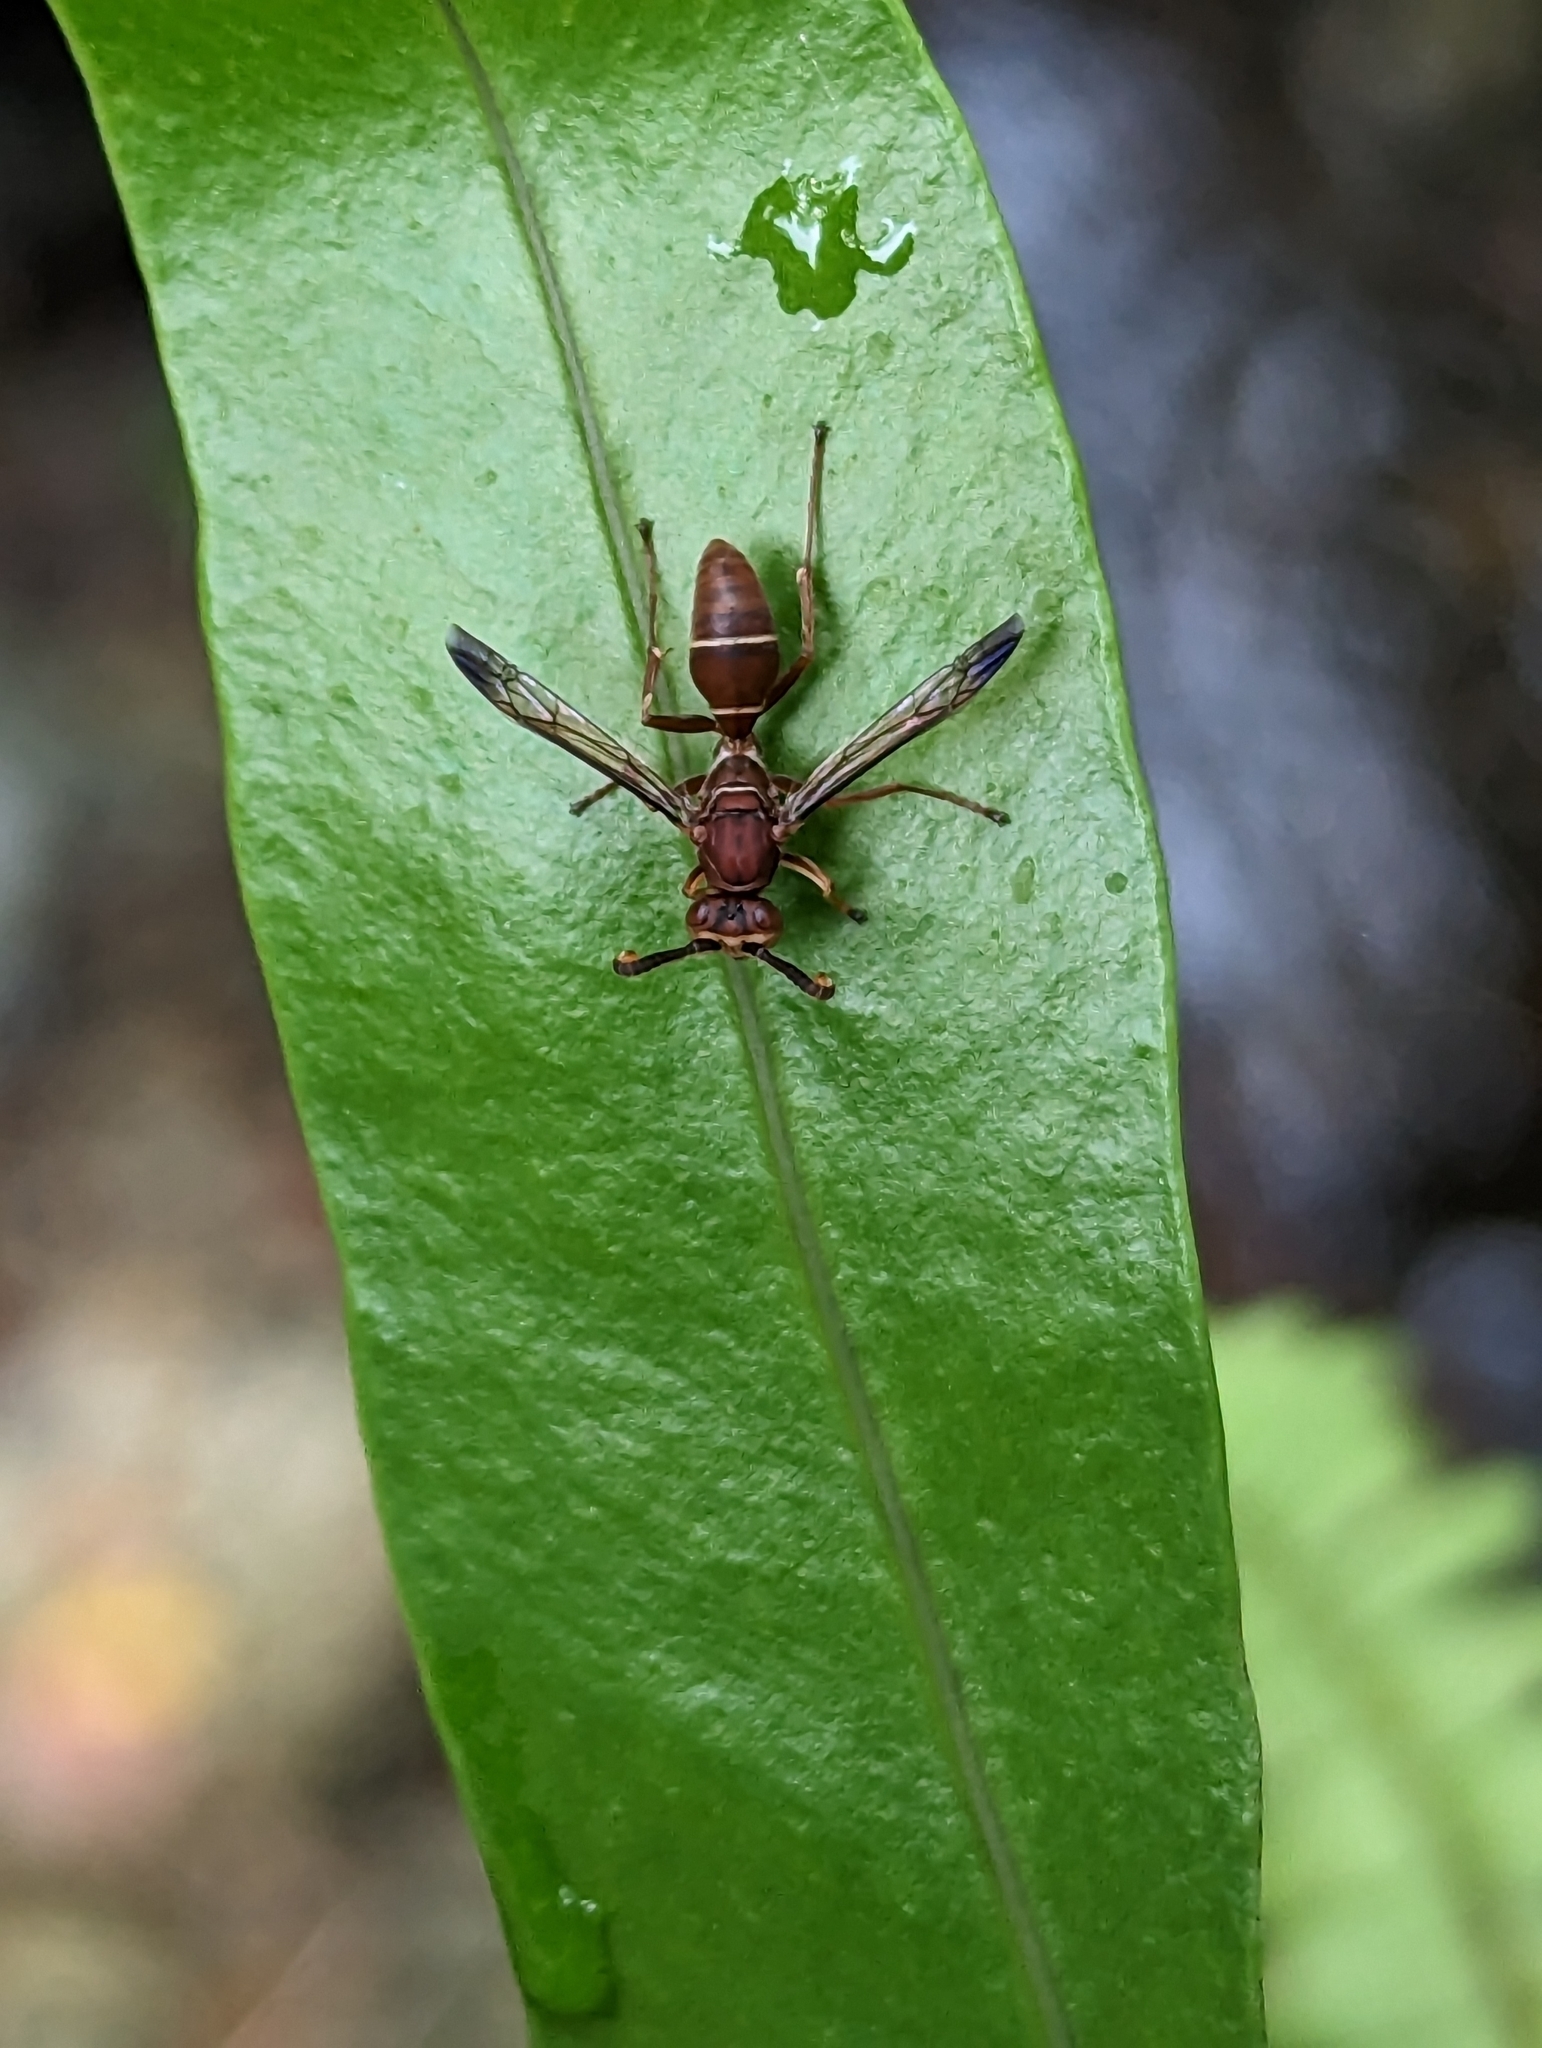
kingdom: Animalia
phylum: Arthropoda
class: Insecta
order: Hymenoptera
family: Eumenidae
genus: Polistes
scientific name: Polistes africanus
